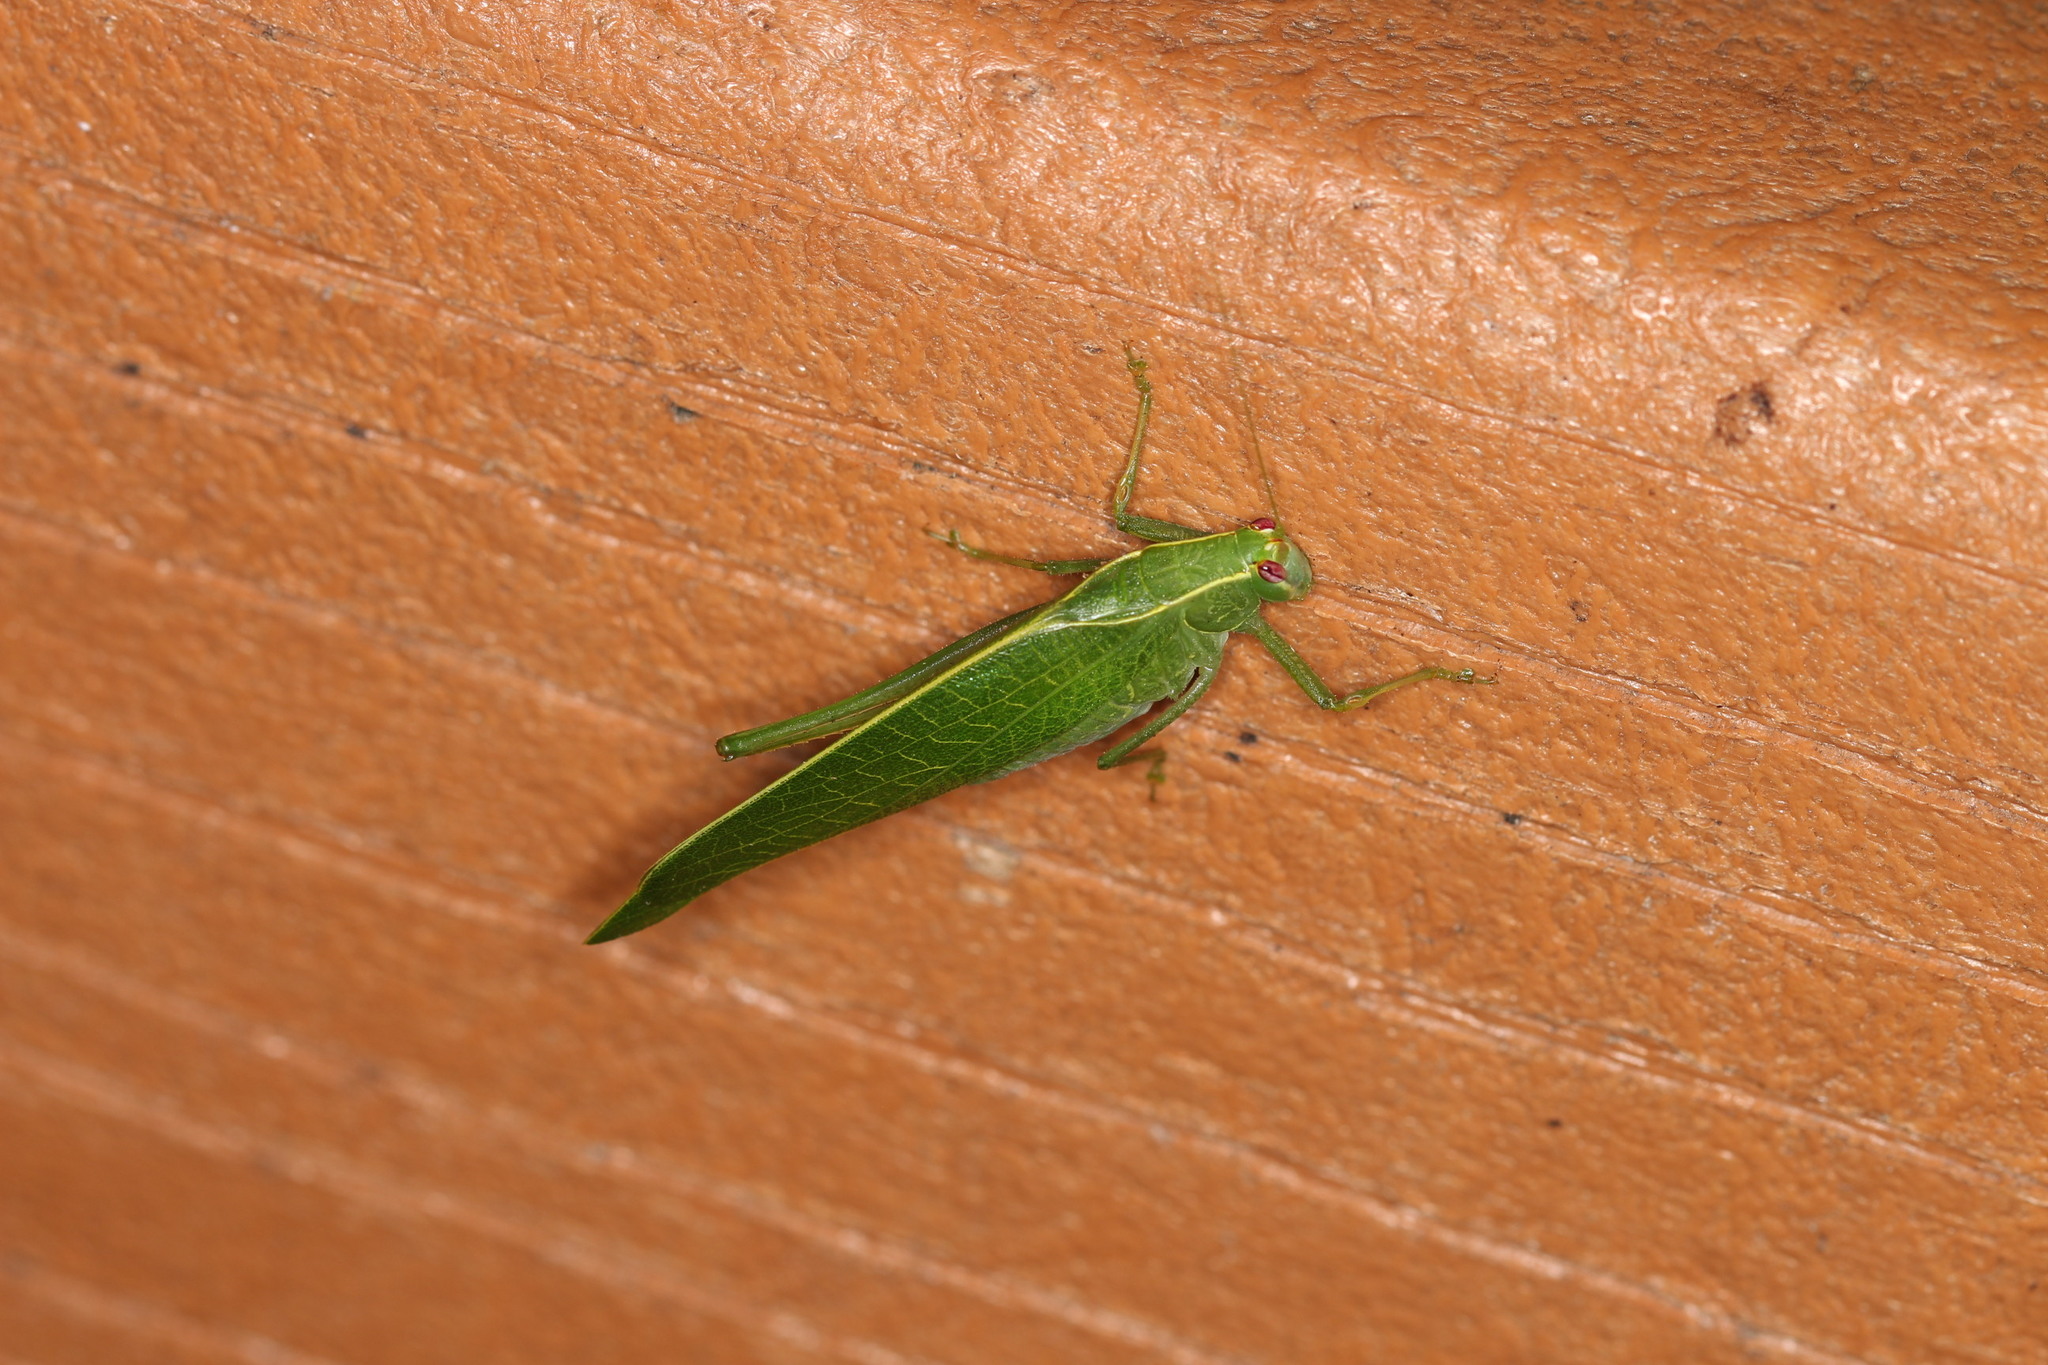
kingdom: Animalia
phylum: Arthropoda
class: Insecta
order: Orthoptera
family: Tettigoniidae
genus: Montezumina
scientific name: Montezumina modesta
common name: Modest katydid
